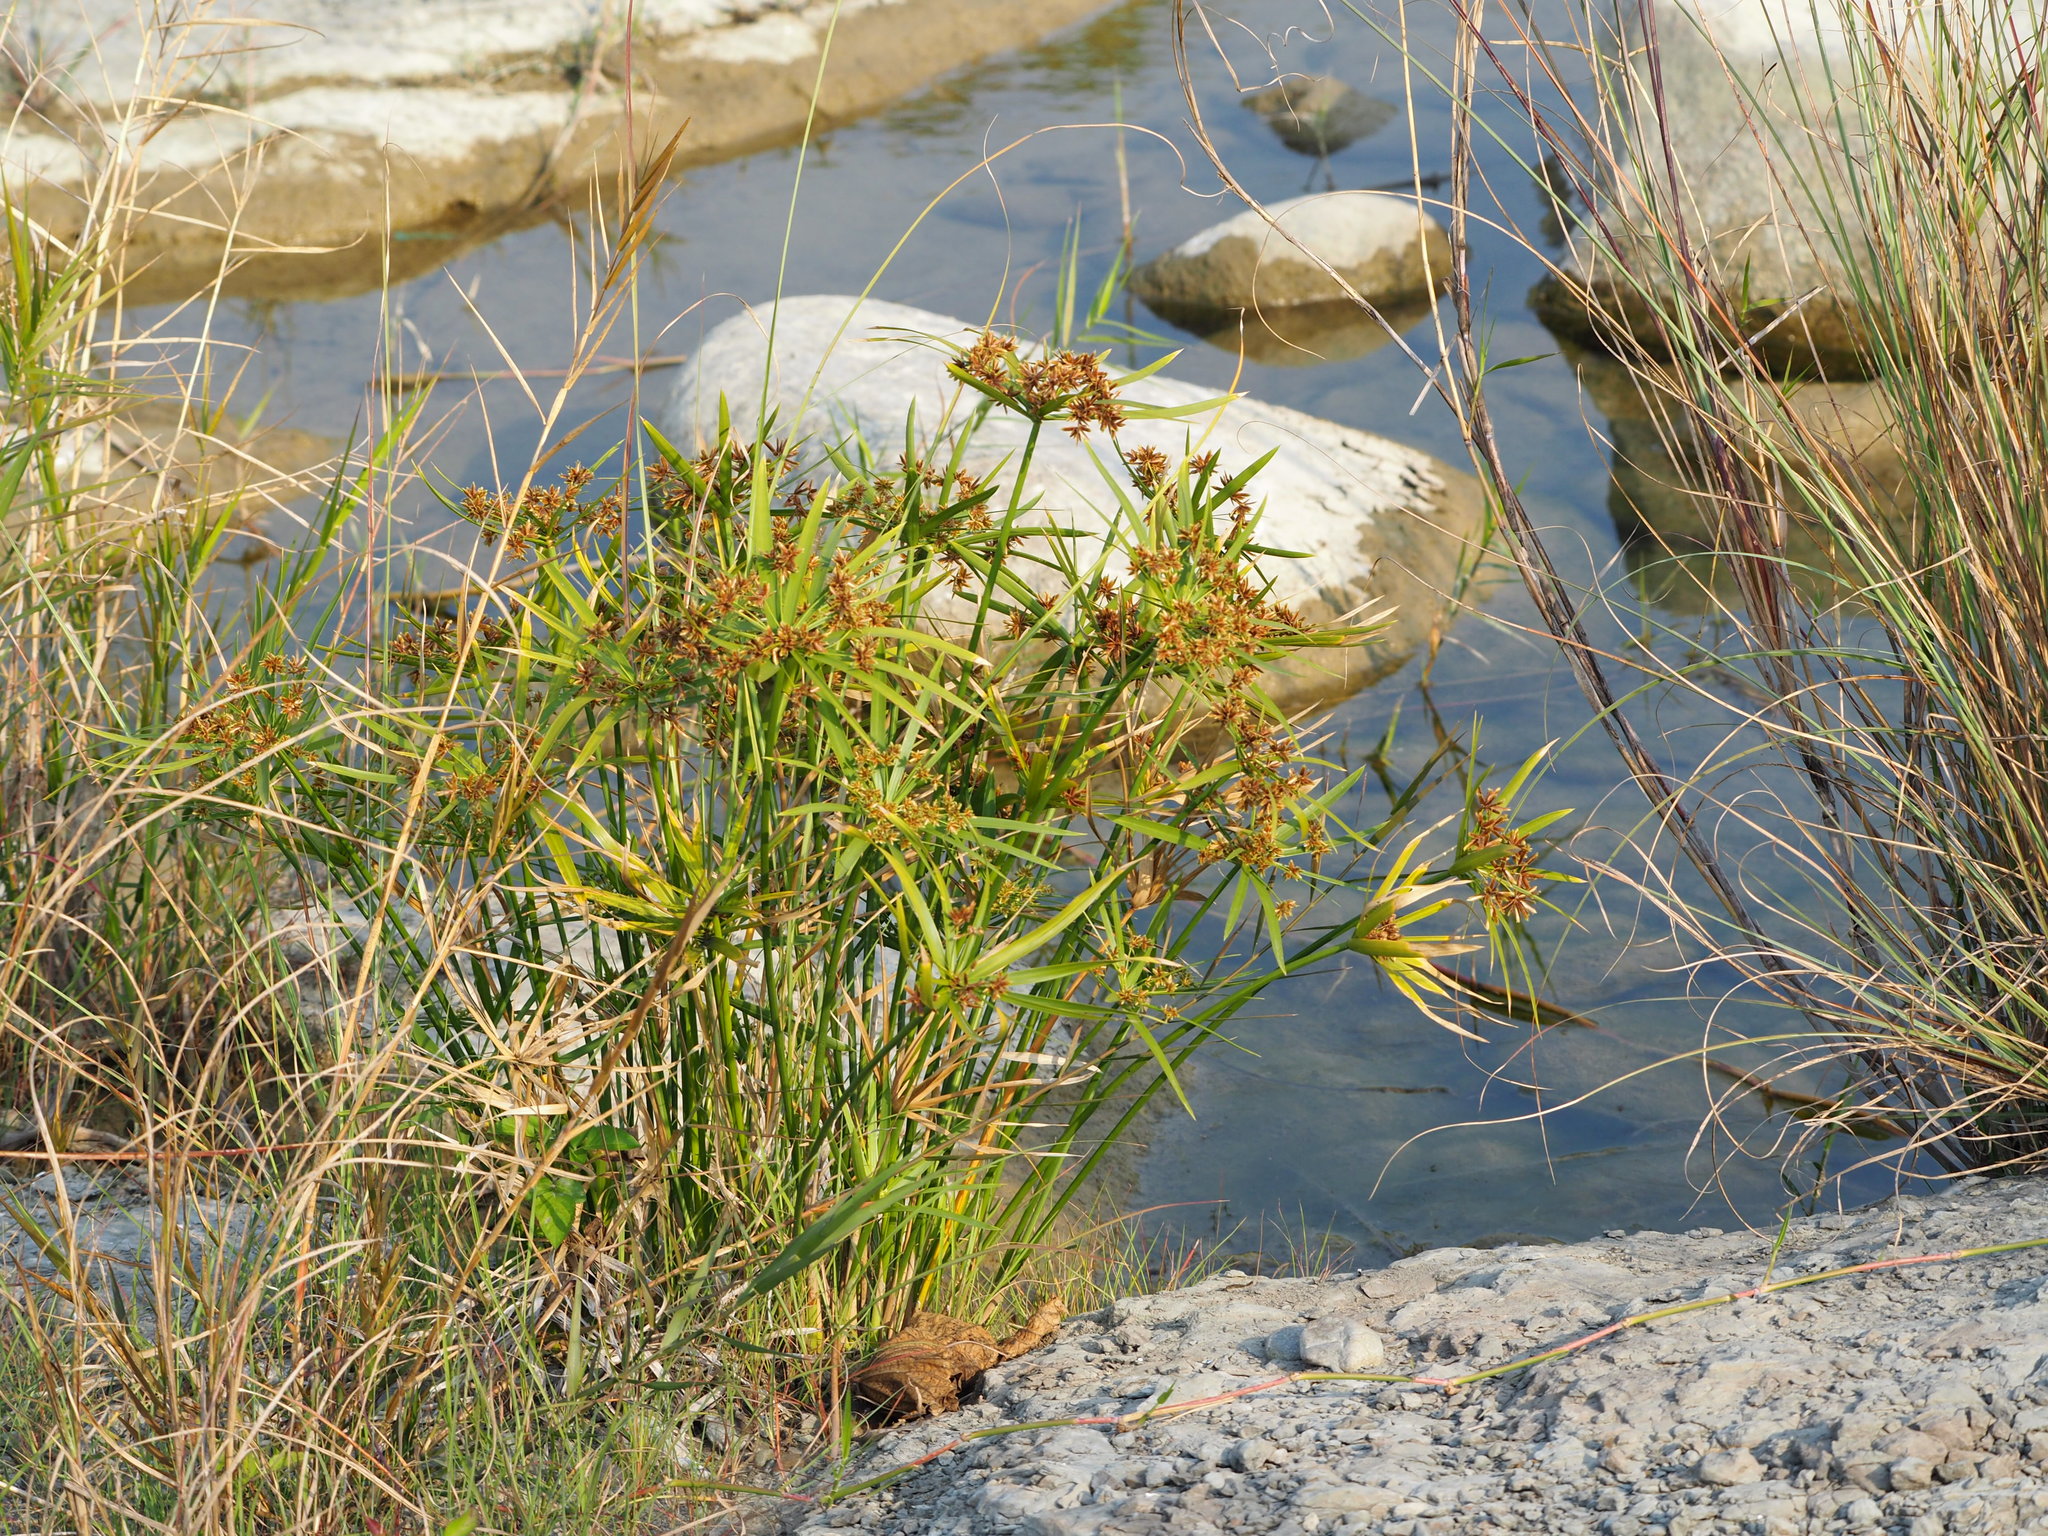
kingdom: Plantae
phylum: Tracheophyta
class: Liliopsida
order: Poales
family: Cyperaceae
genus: Cyperus
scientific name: Cyperus alternifolius
